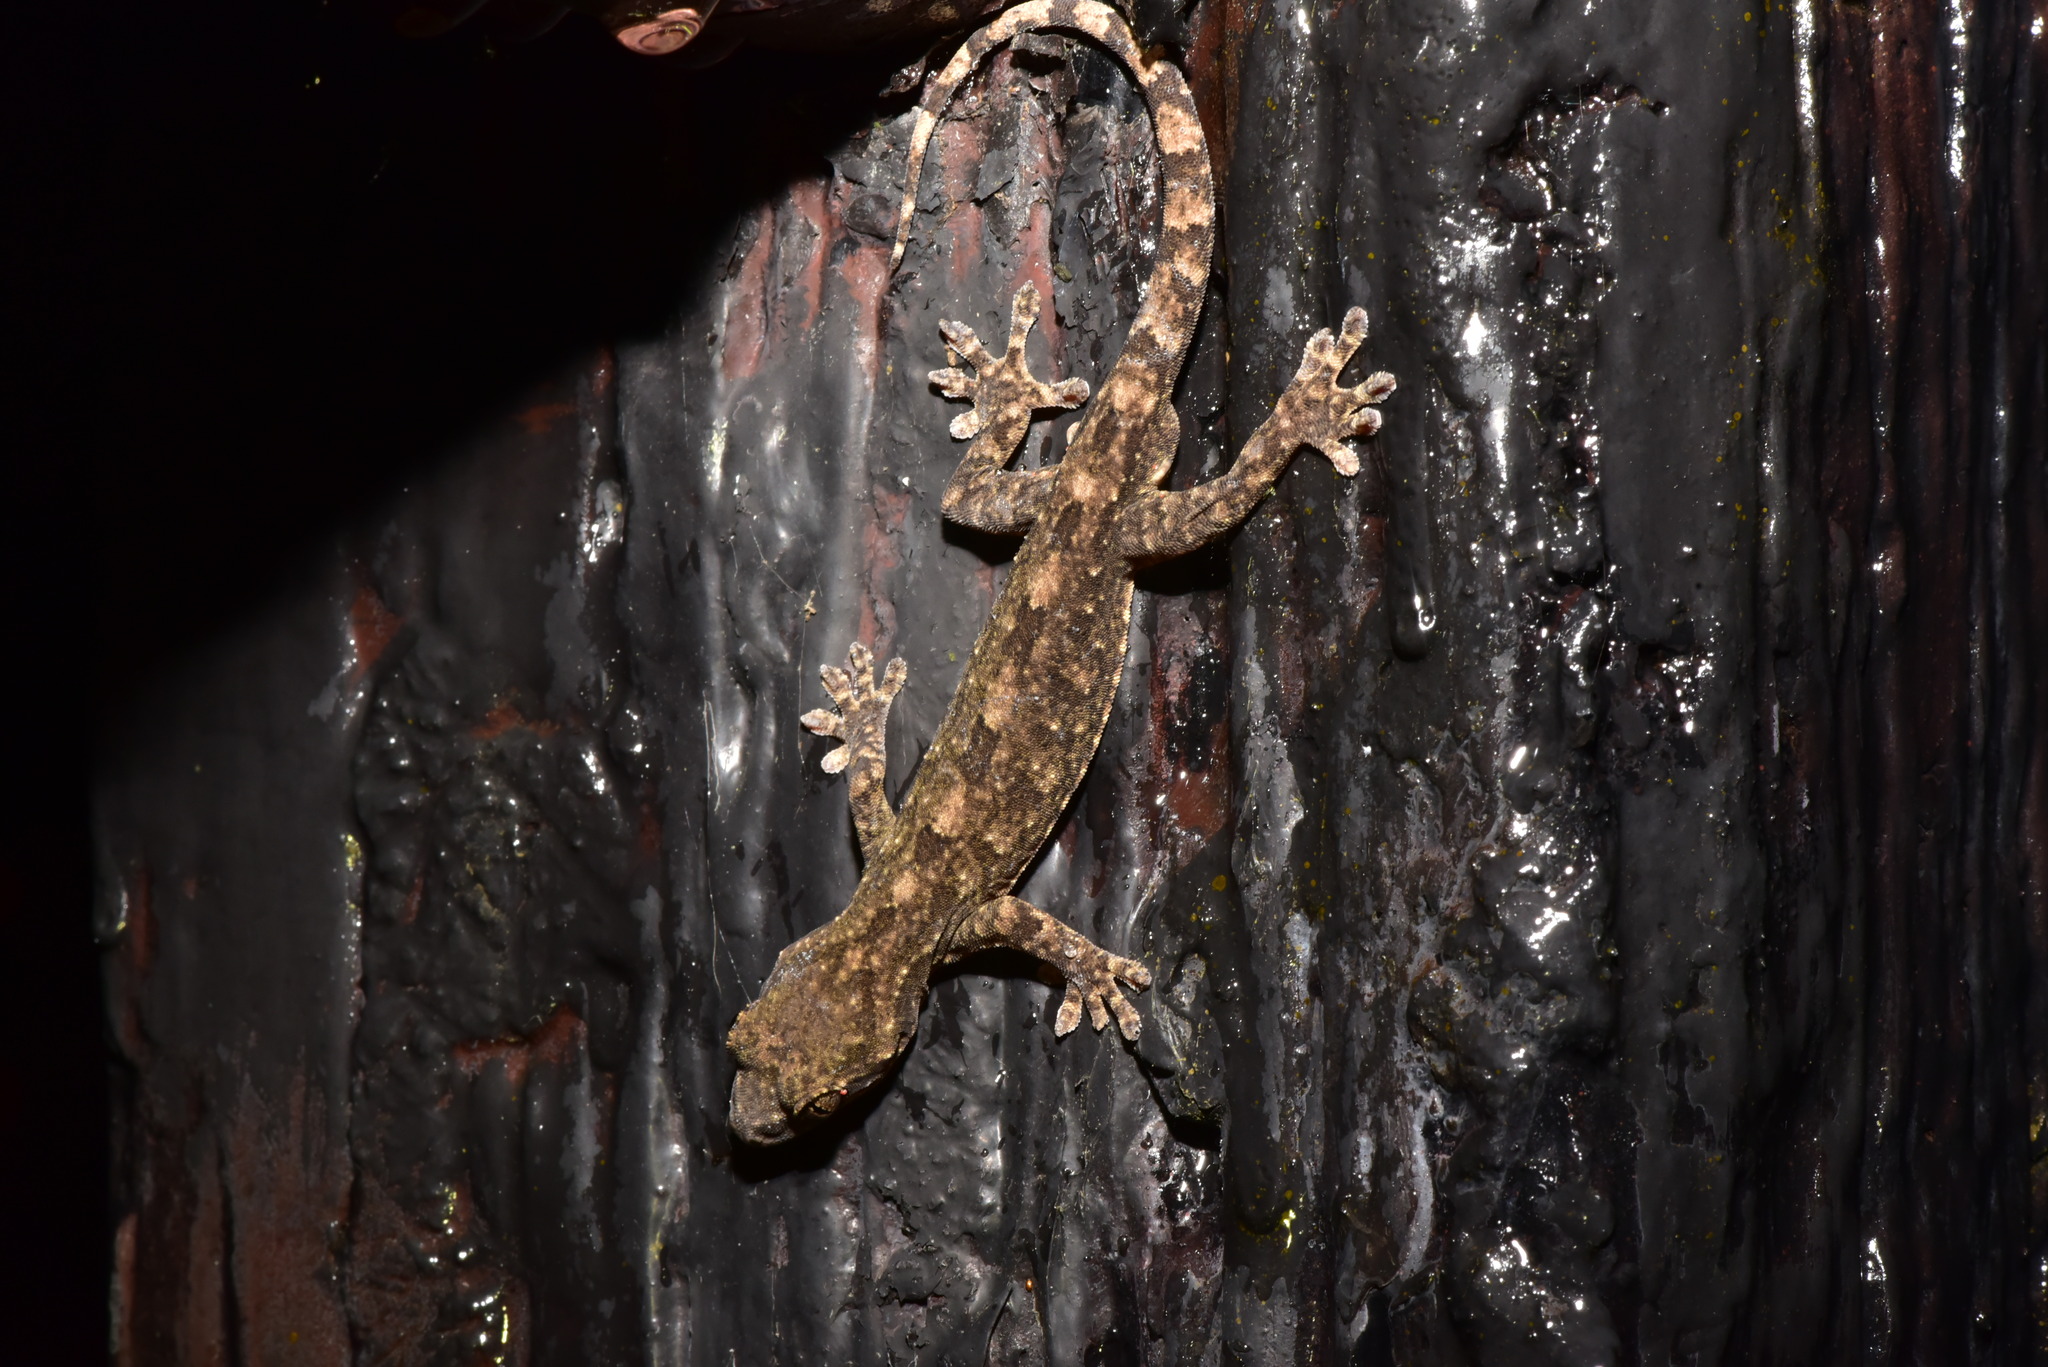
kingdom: Animalia
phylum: Chordata
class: Squamata
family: Gekkonidae
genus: Gekko
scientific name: Gekko hokouensis
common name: Kwangsi gecko
